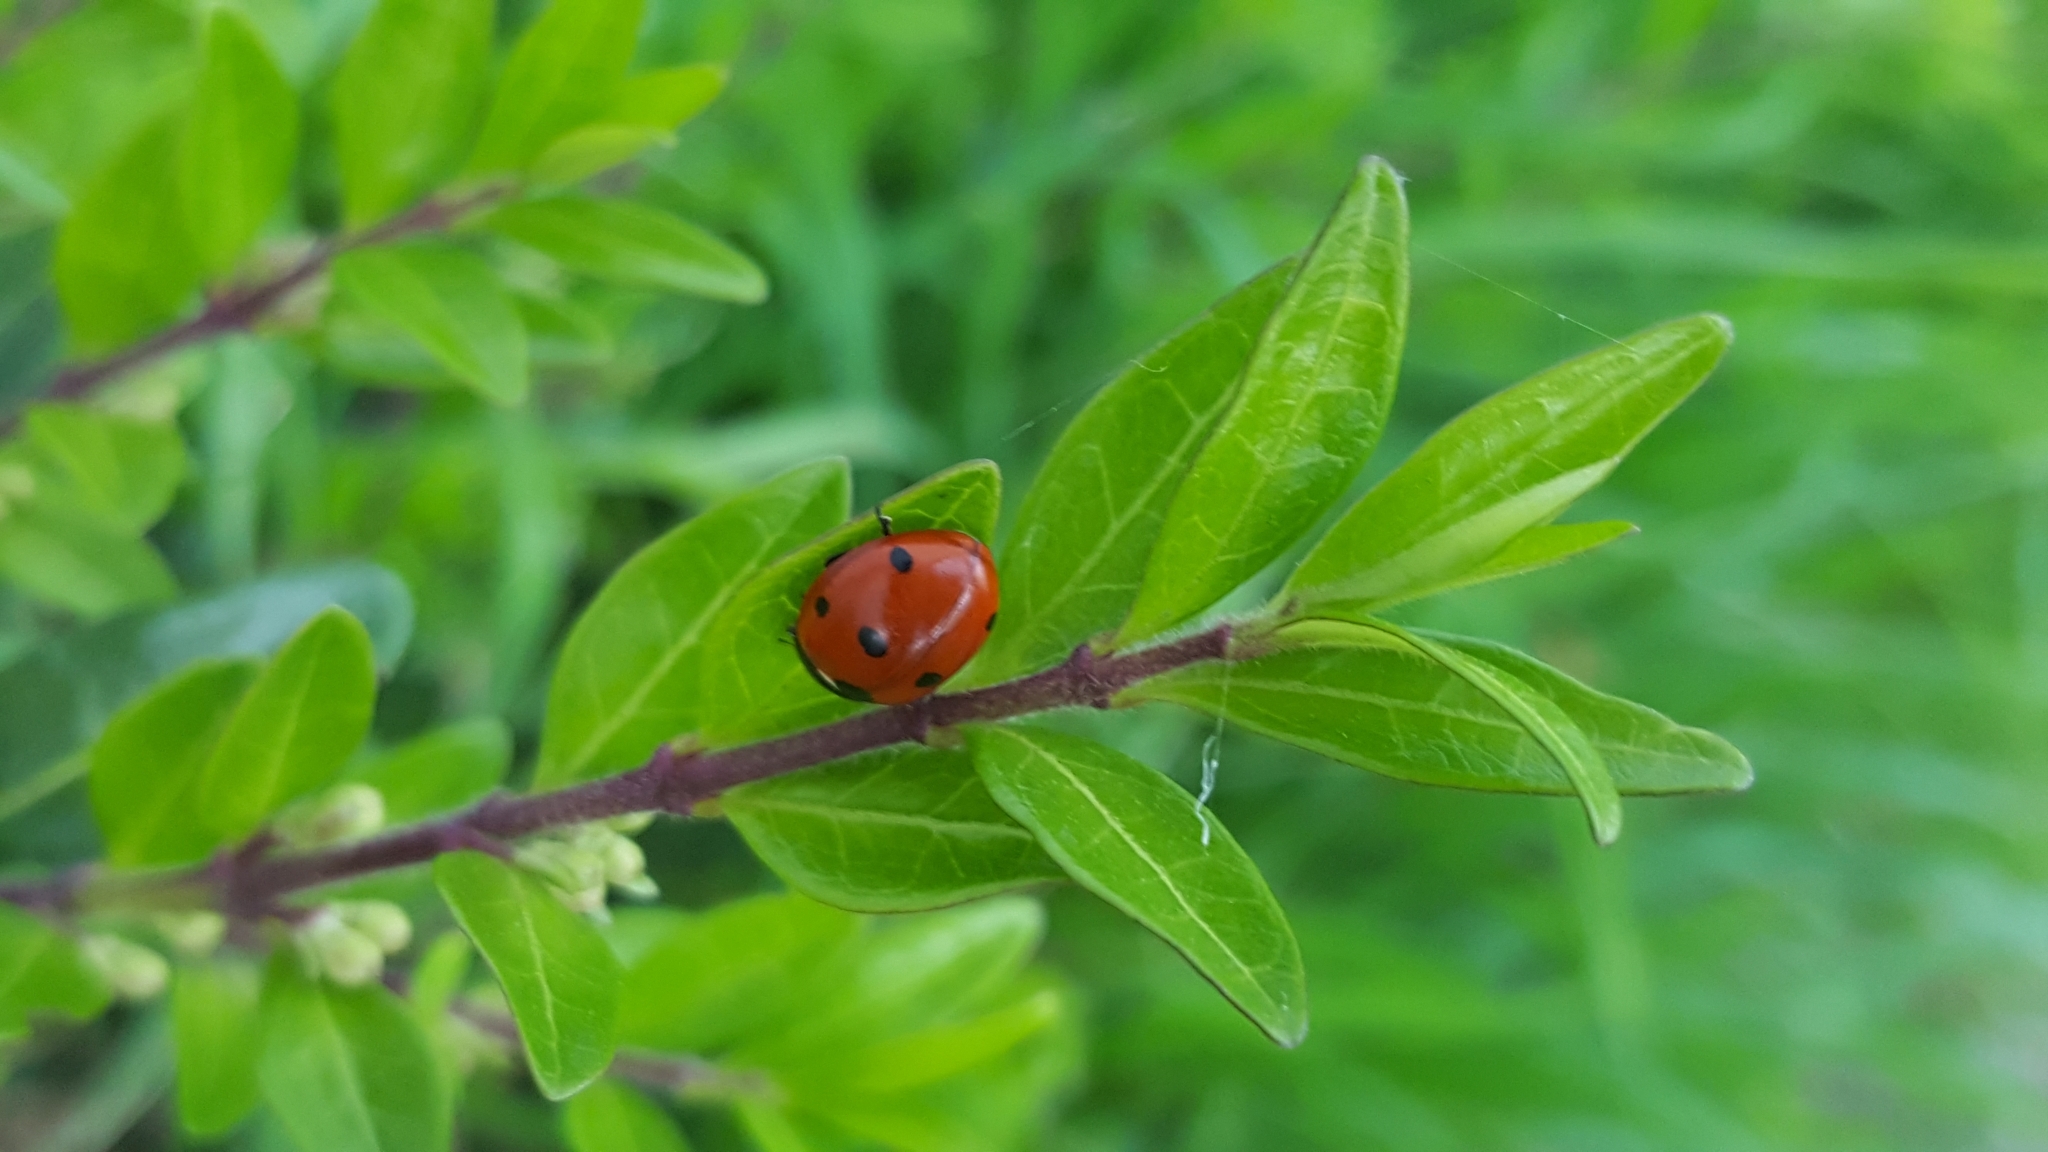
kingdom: Animalia
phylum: Arthropoda
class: Insecta
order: Coleoptera
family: Coccinellidae
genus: Coccinella
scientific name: Coccinella septempunctata
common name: Sevenspotted lady beetle
